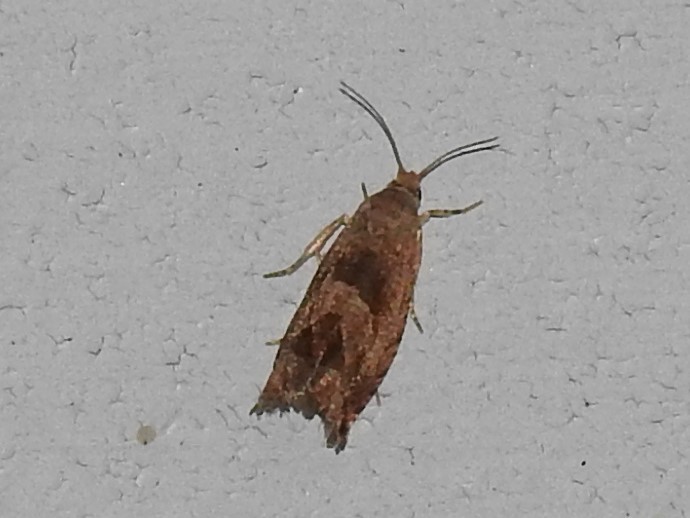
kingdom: Animalia
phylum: Arthropoda
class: Insecta
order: Lepidoptera
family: Tortricidae
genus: Eucosma
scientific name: Eucosma tomonana
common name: Aster-head eucosma moth
